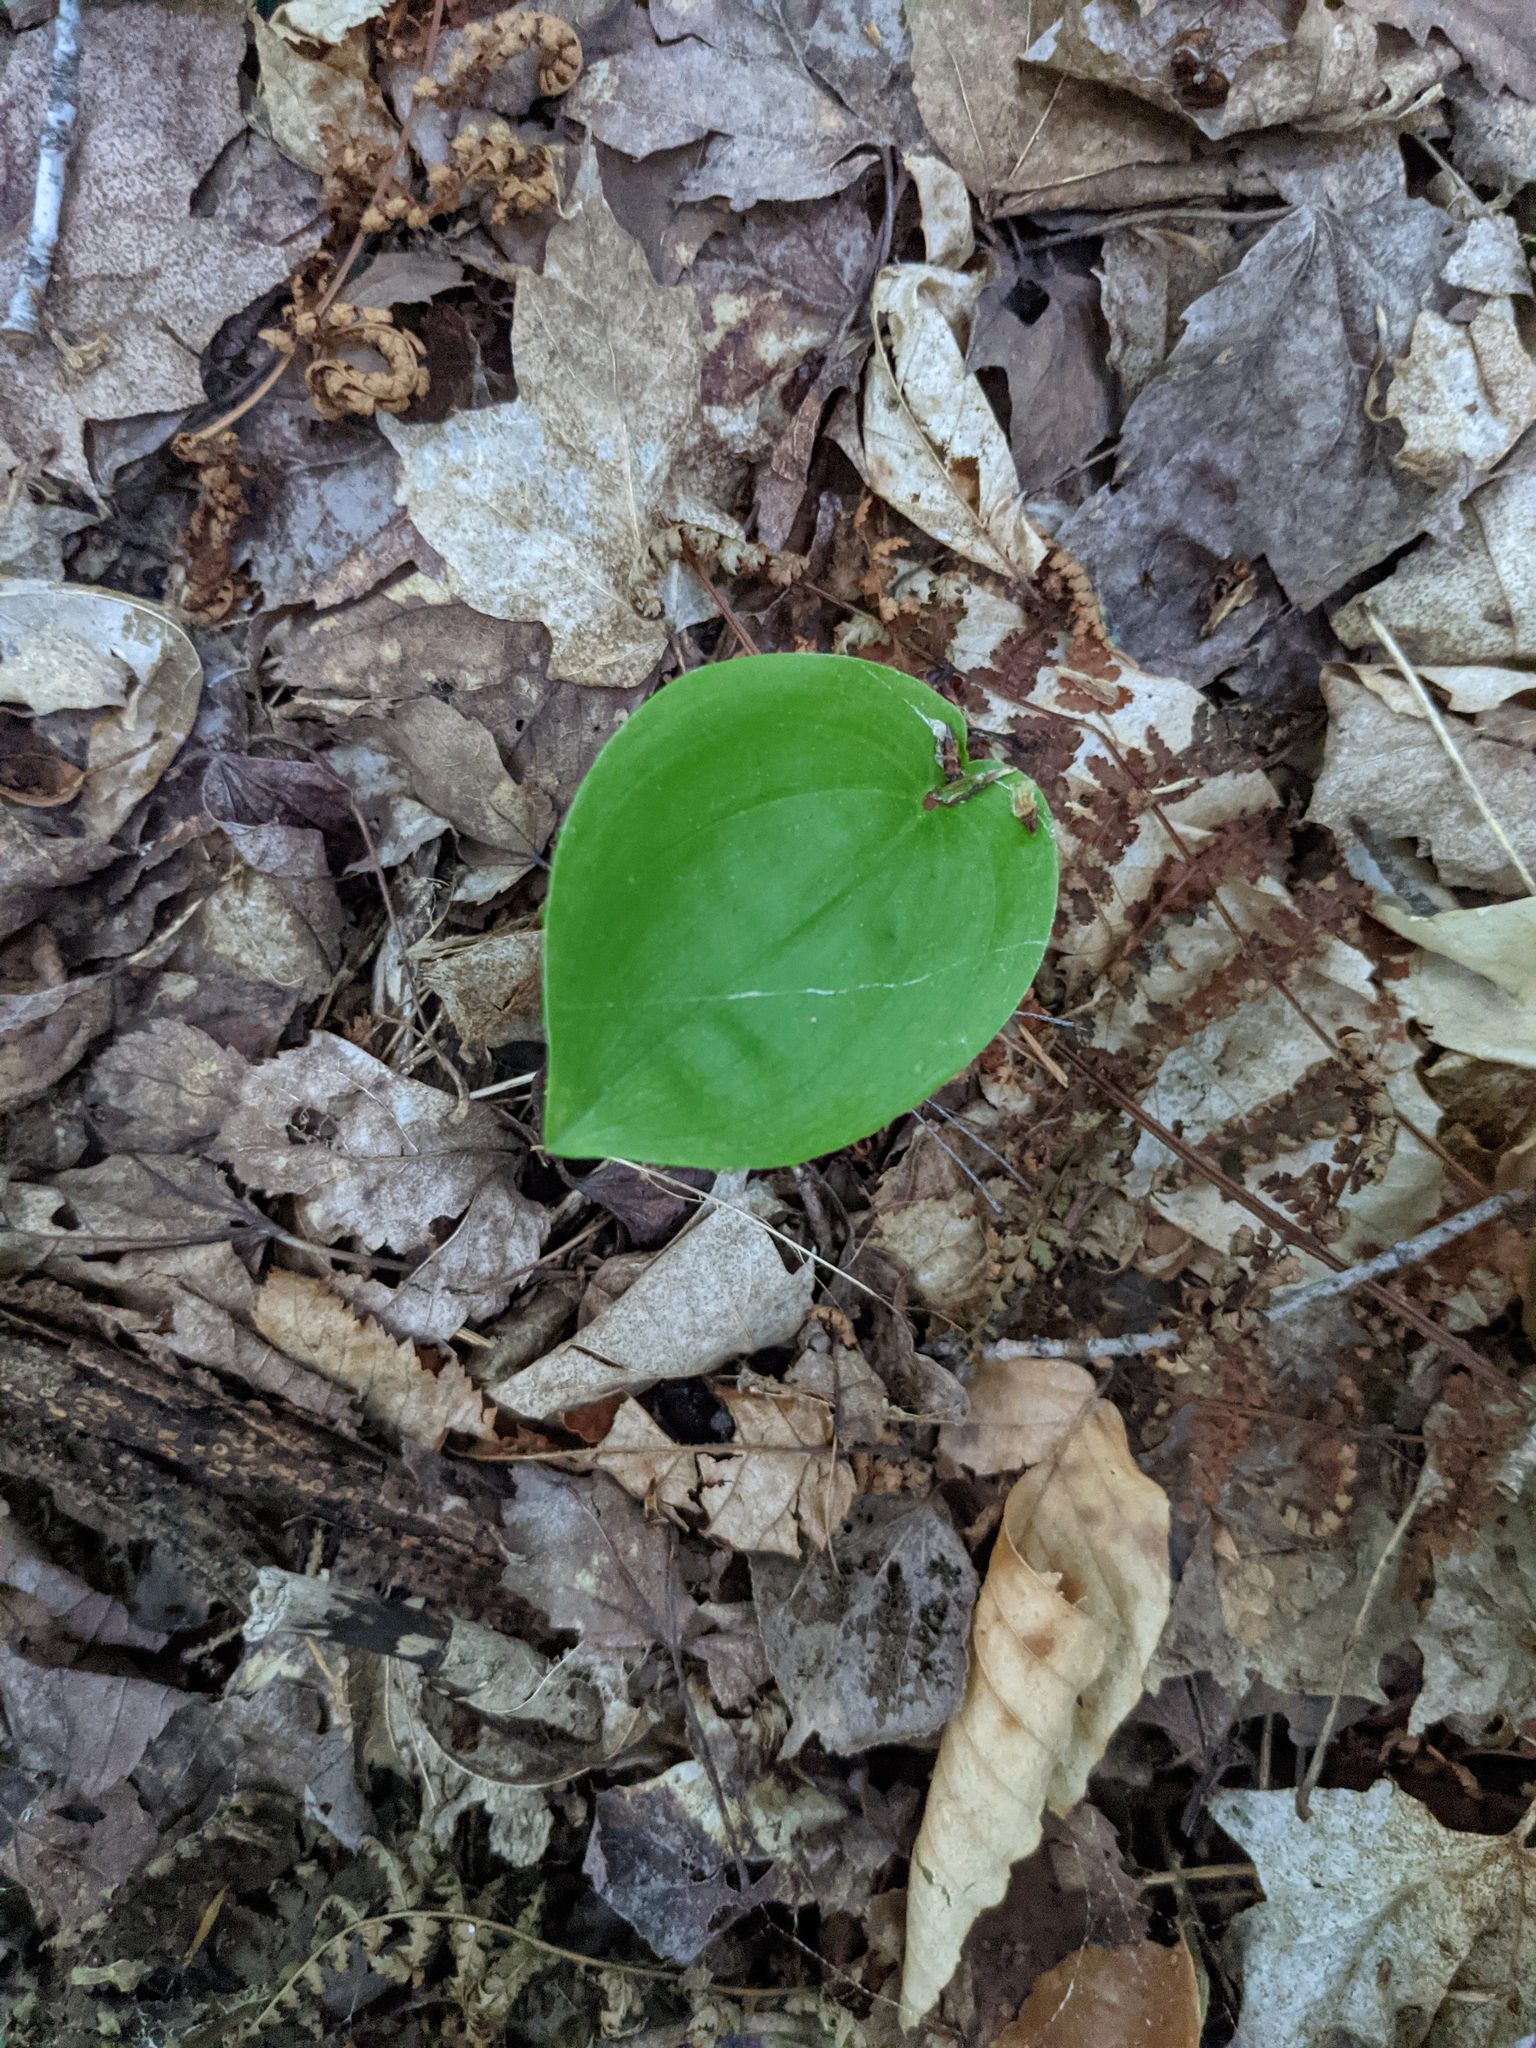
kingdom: Plantae
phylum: Tracheophyta
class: Liliopsida
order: Asparagales
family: Asparagaceae
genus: Maianthemum
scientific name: Maianthemum canadense
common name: False lily-of-the-valley
